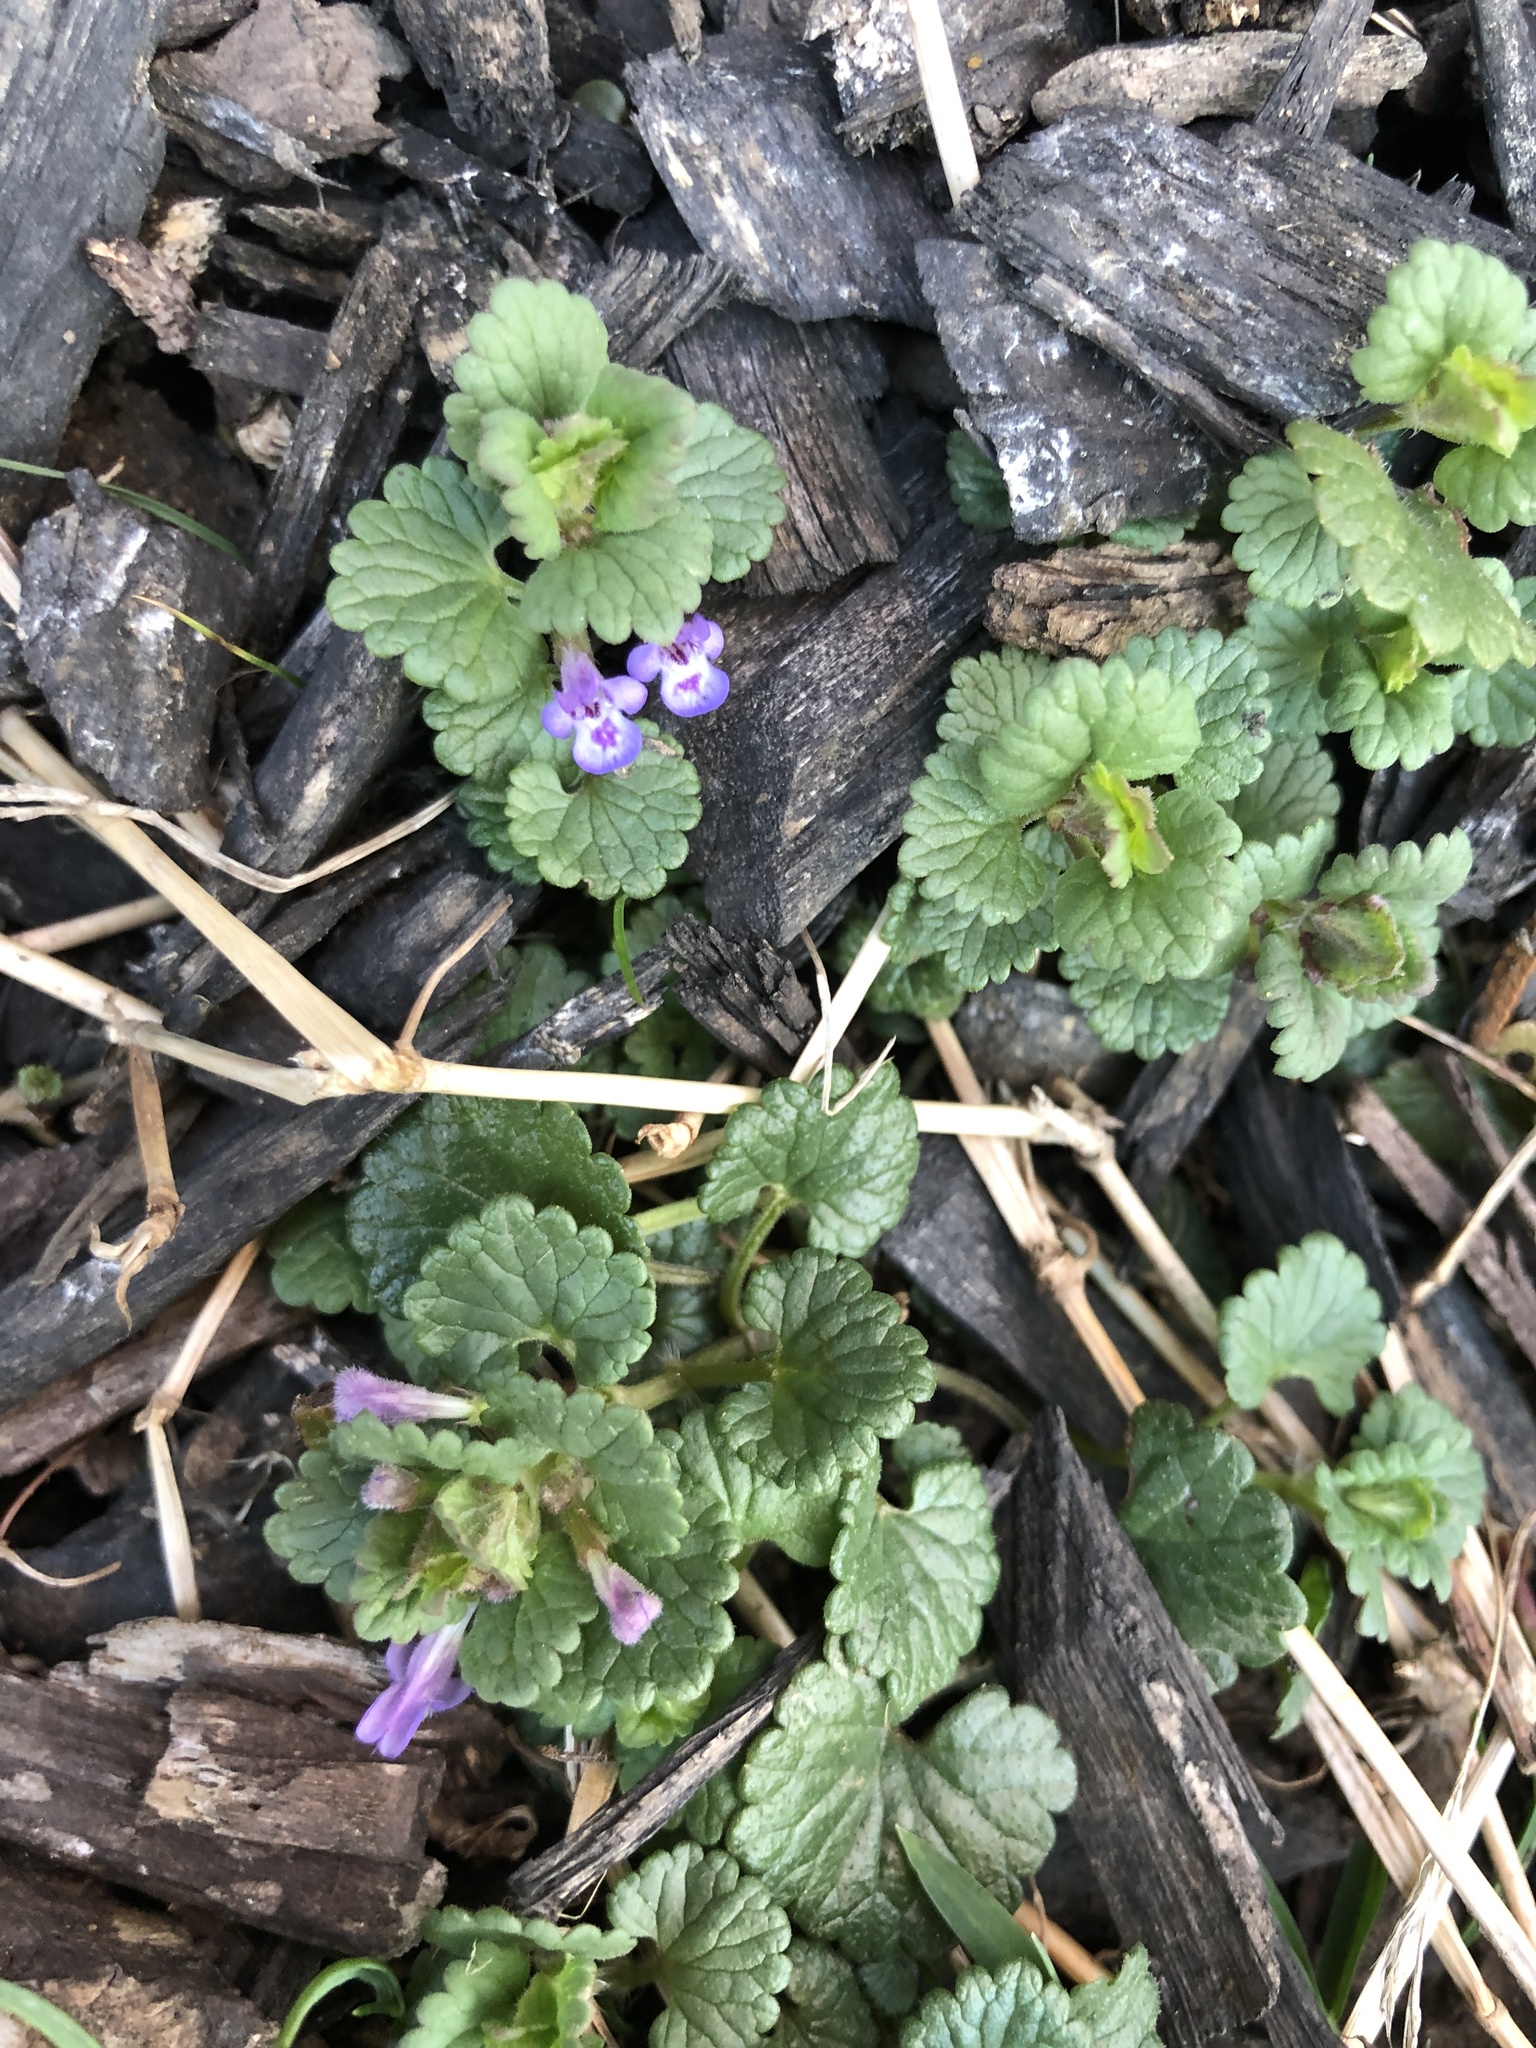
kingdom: Plantae
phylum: Tracheophyta
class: Magnoliopsida
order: Lamiales
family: Lamiaceae
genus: Glechoma
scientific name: Glechoma hederacea
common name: Ground ivy
